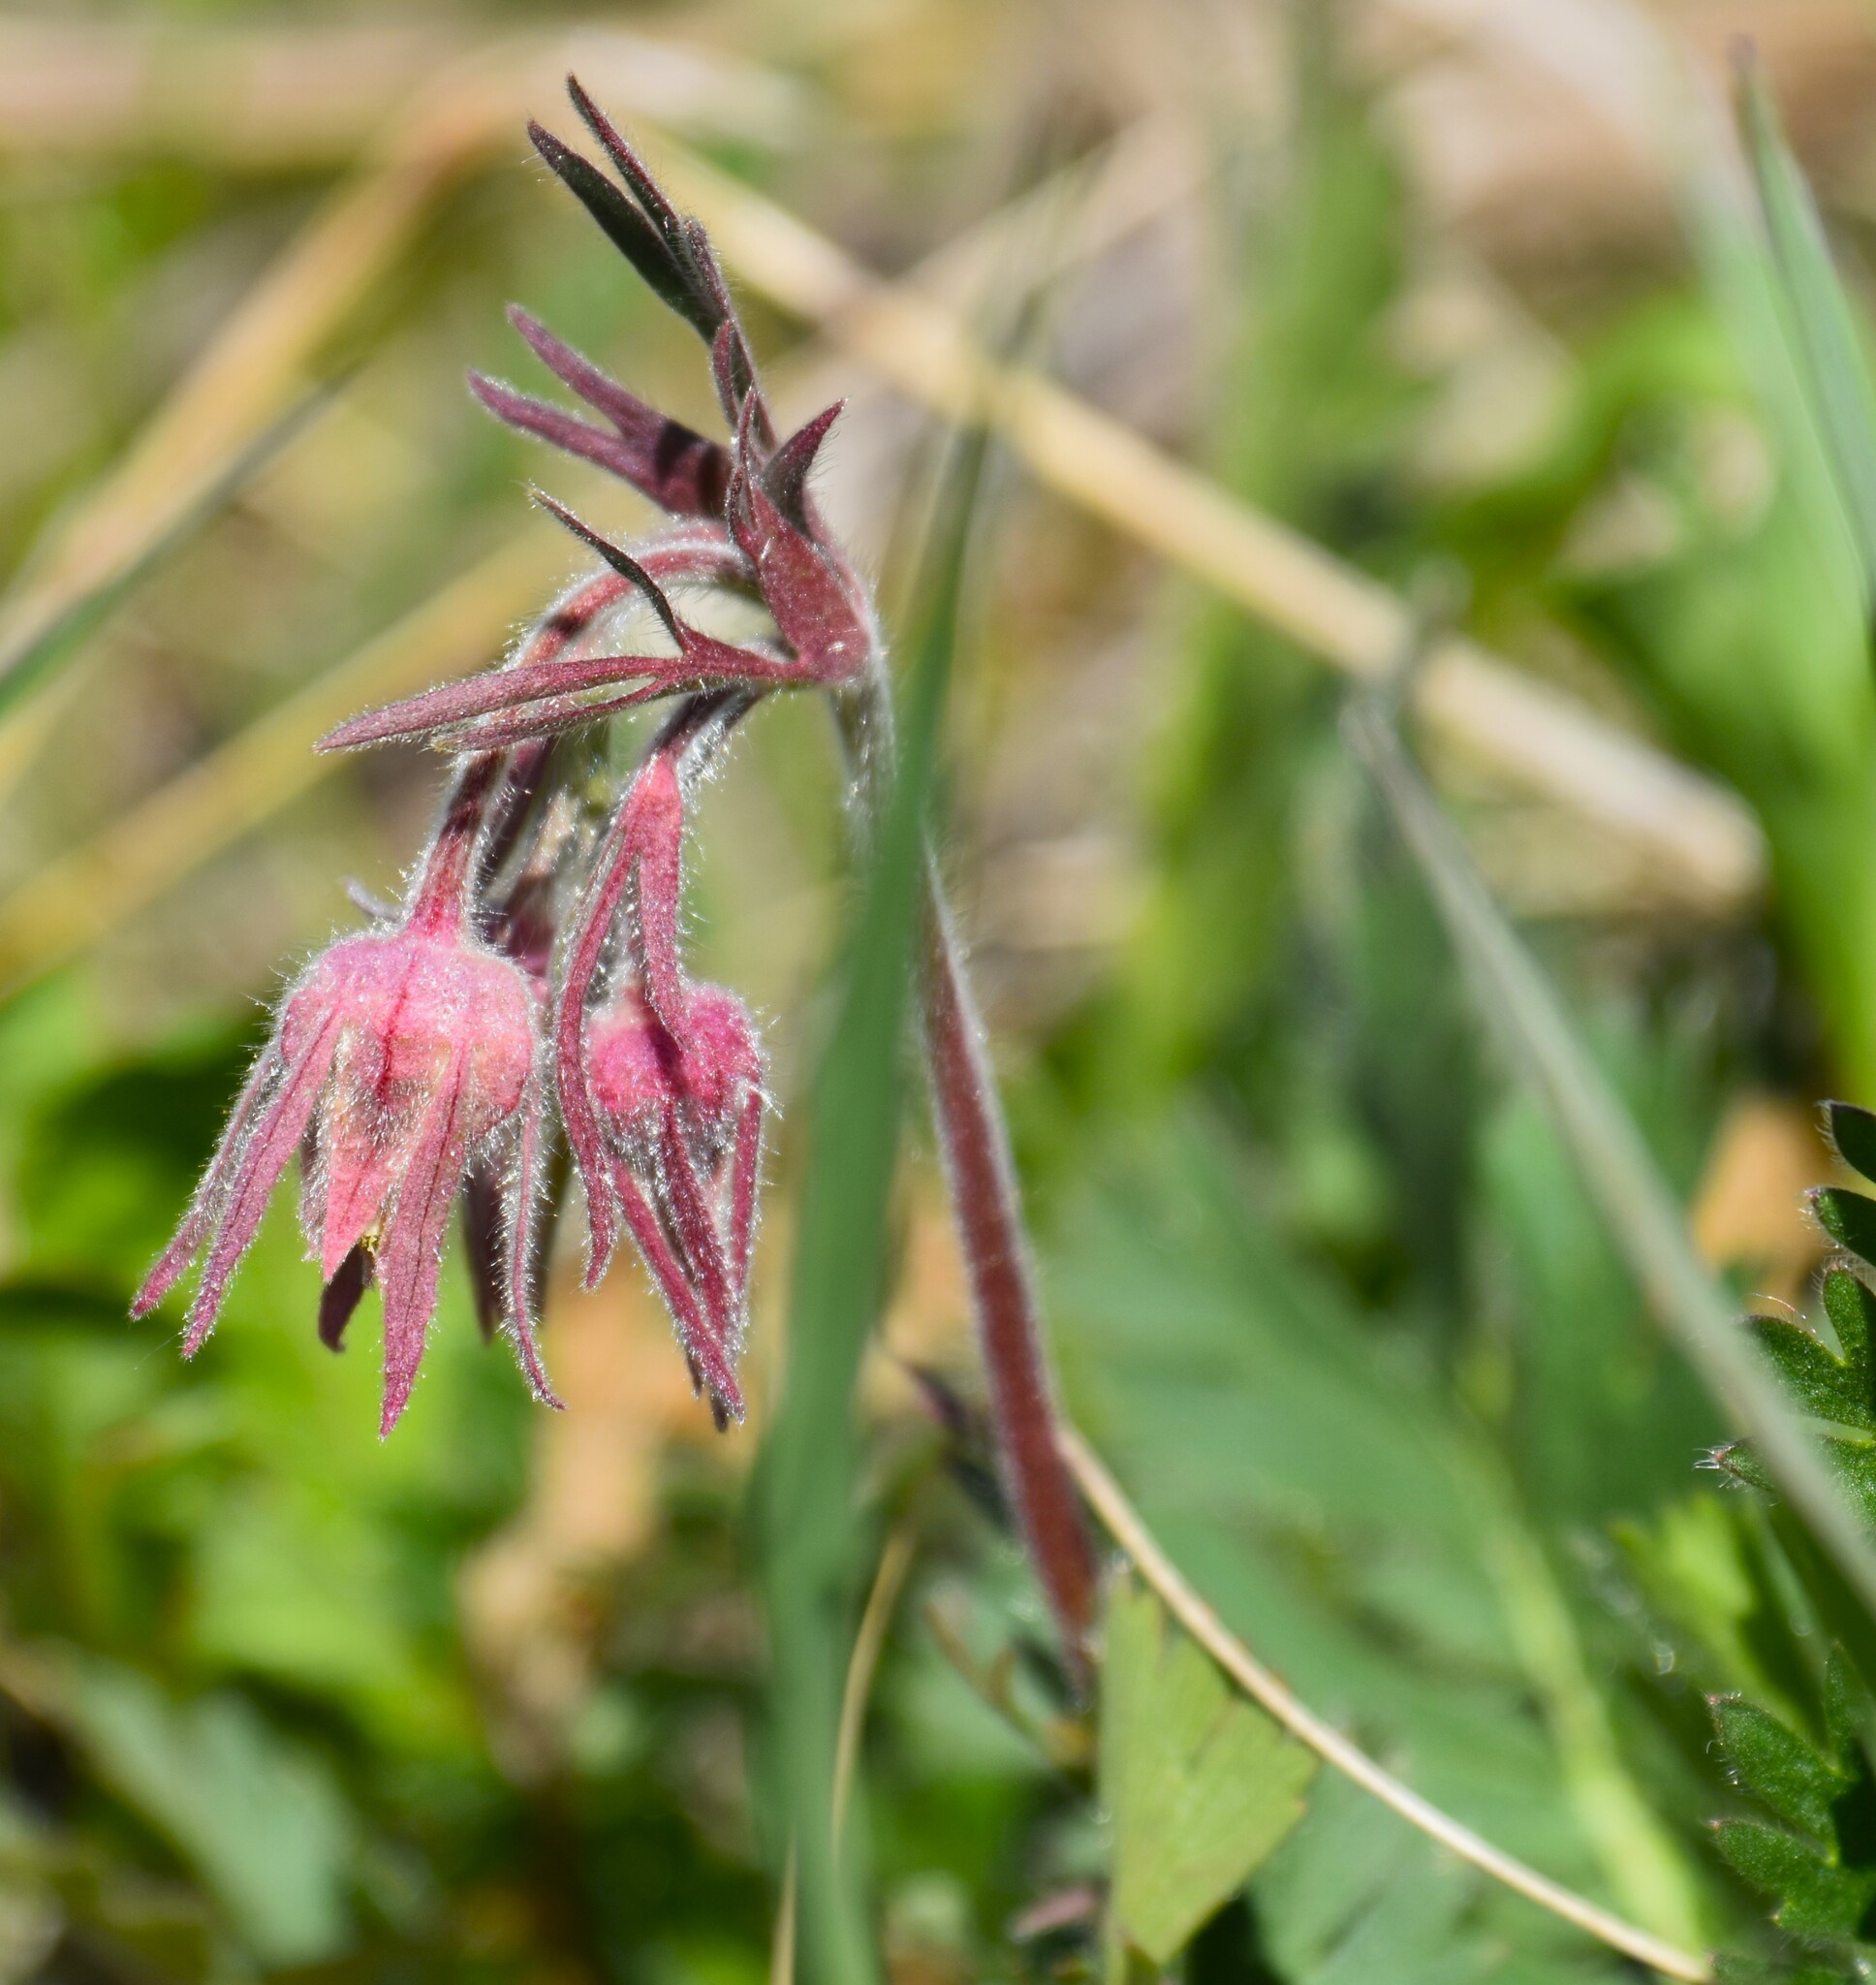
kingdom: Plantae
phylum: Tracheophyta
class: Magnoliopsida
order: Rosales
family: Rosaceae
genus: Geum
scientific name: Geum triflorum
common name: Old man's whiskers
